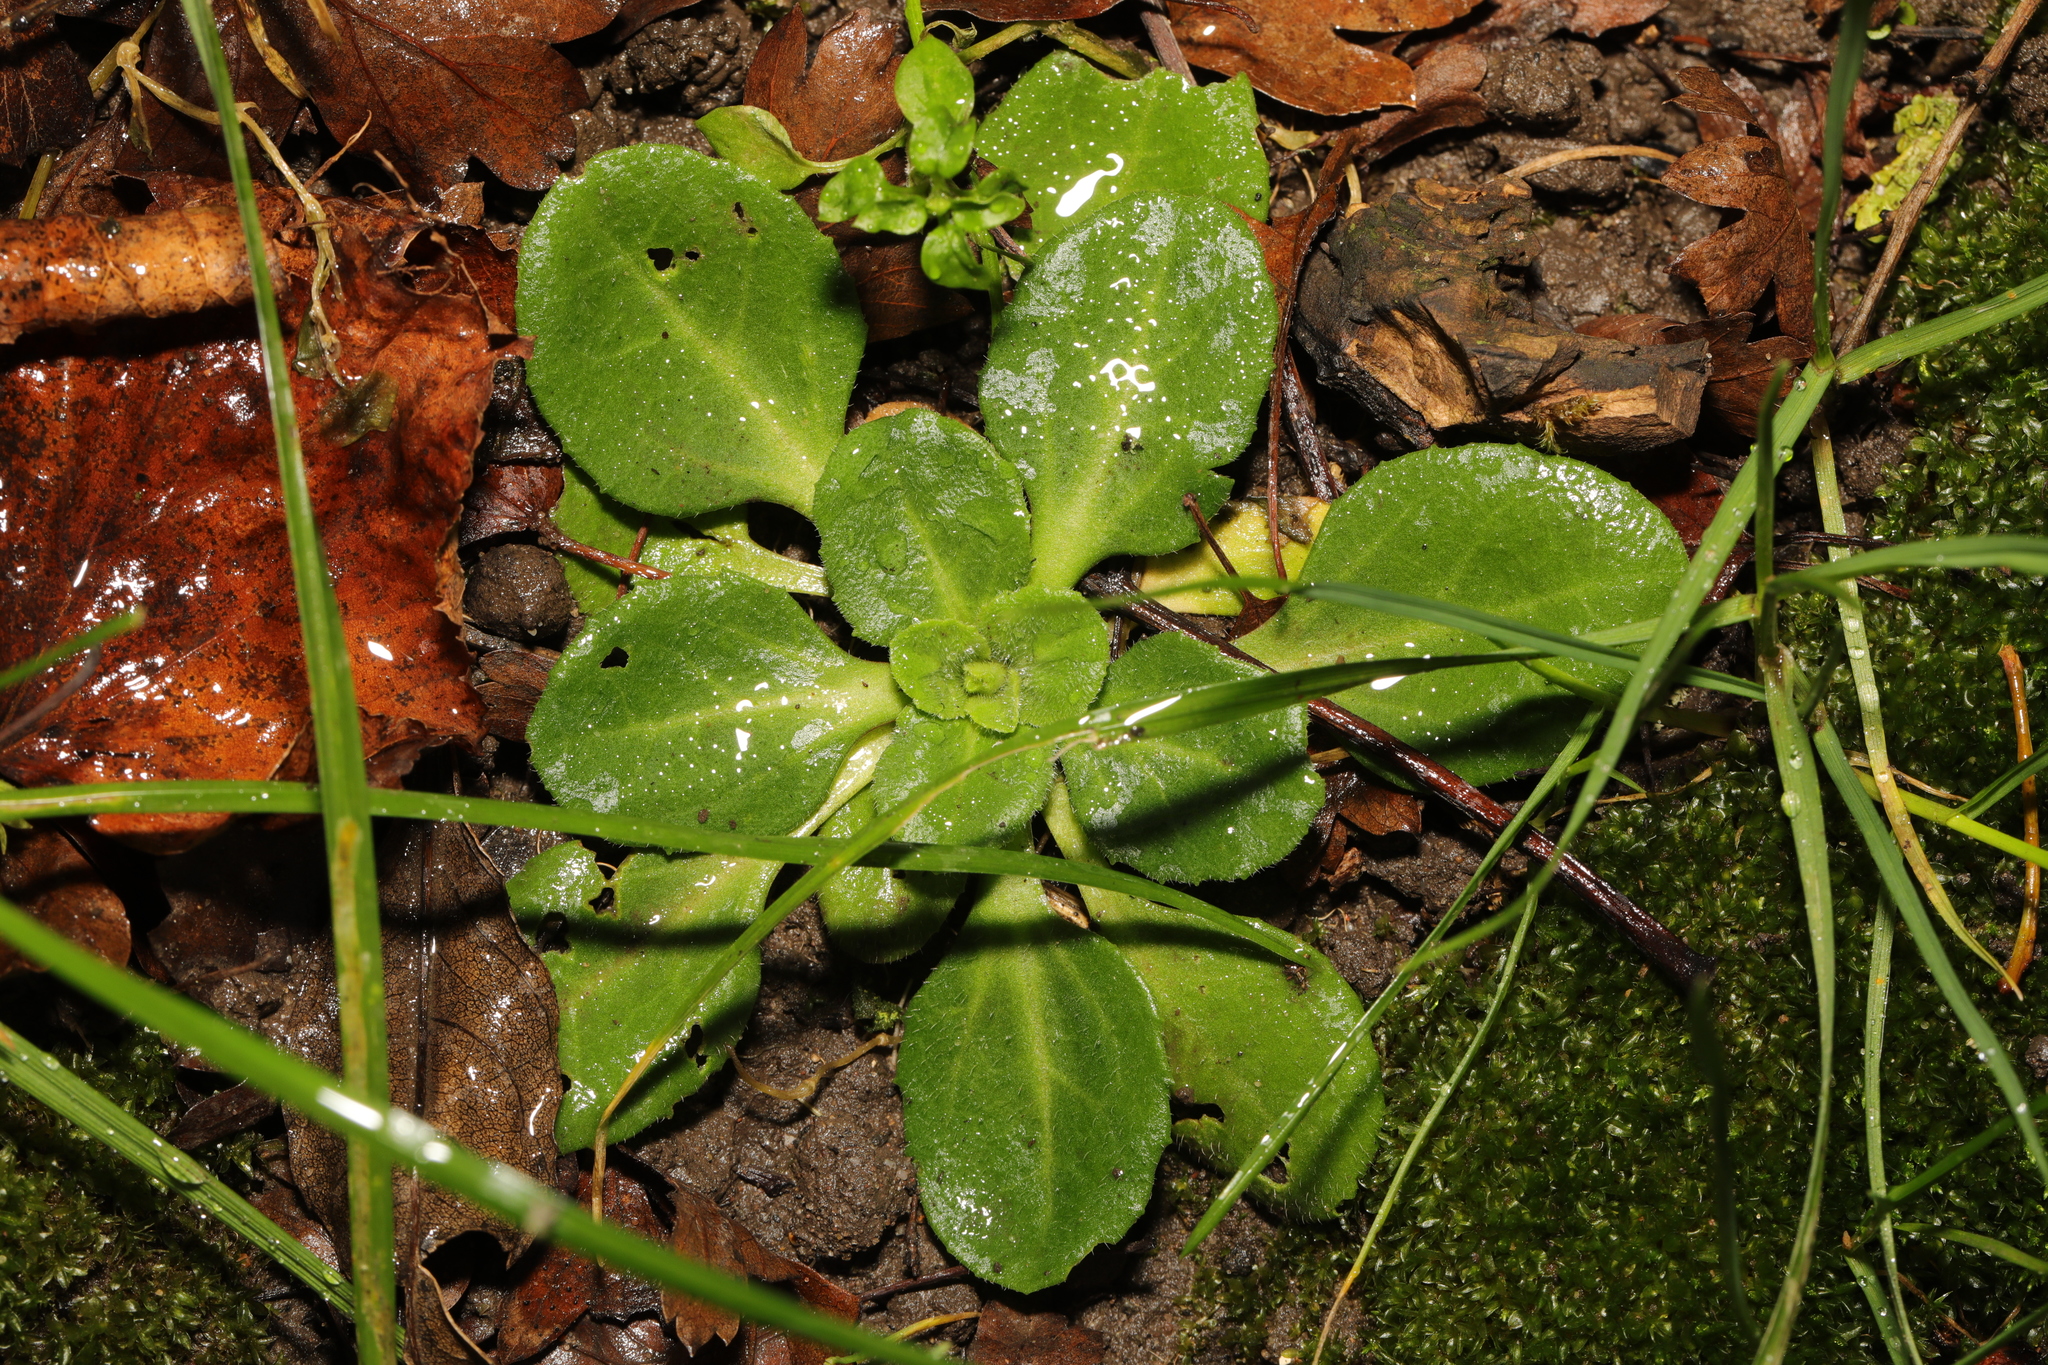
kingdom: Plantae
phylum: Tracheophyta
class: Magnoliopsida
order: Asterales
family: Asteraceae
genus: Bellis
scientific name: Bellis perennis
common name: Lawndaisy
